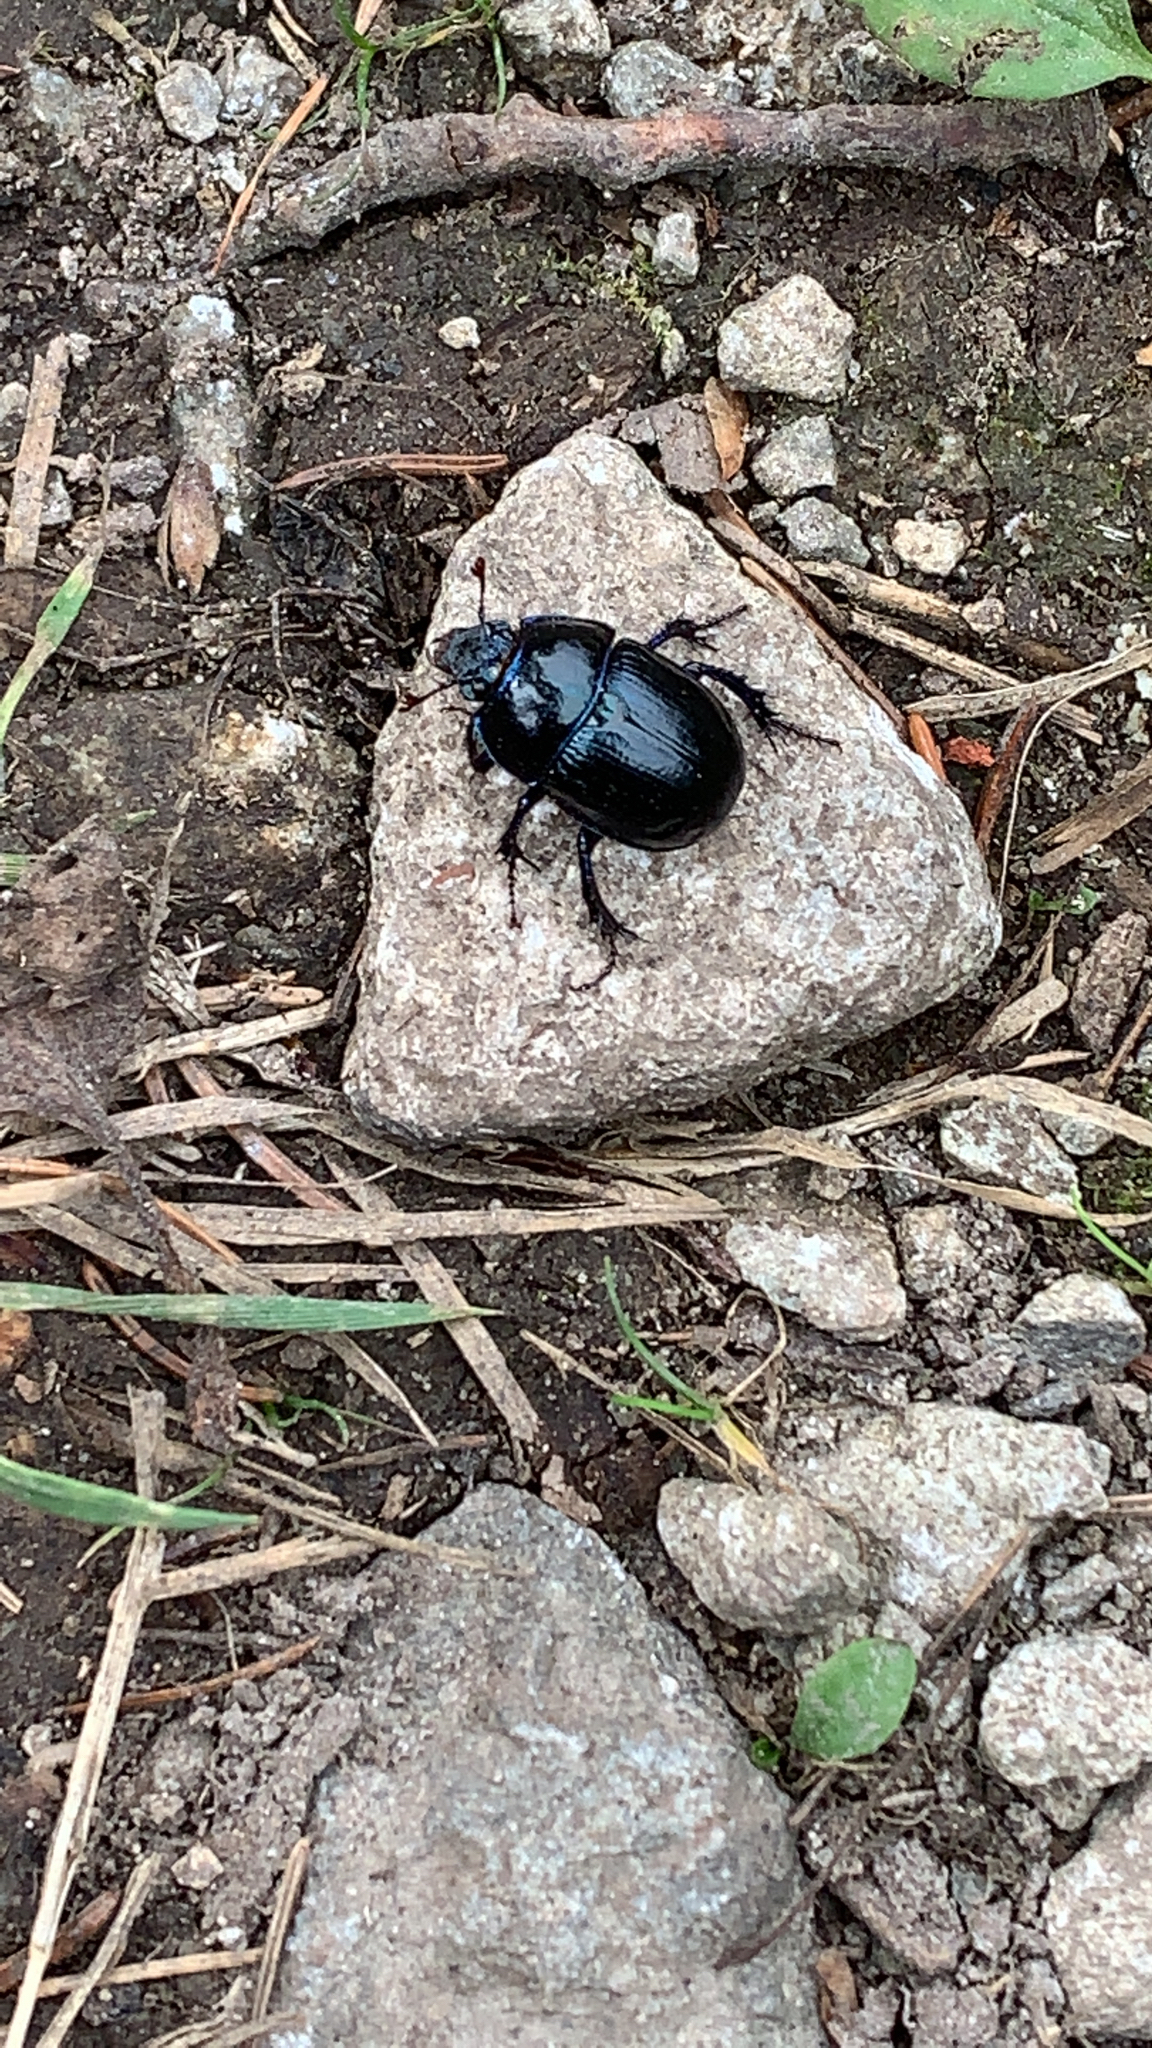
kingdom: Animalia
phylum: Arthropoda
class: Insecta
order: Coleoptera
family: Geotrupidae
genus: Anoplotrupes
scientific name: Anoplotrupes stercorosus
